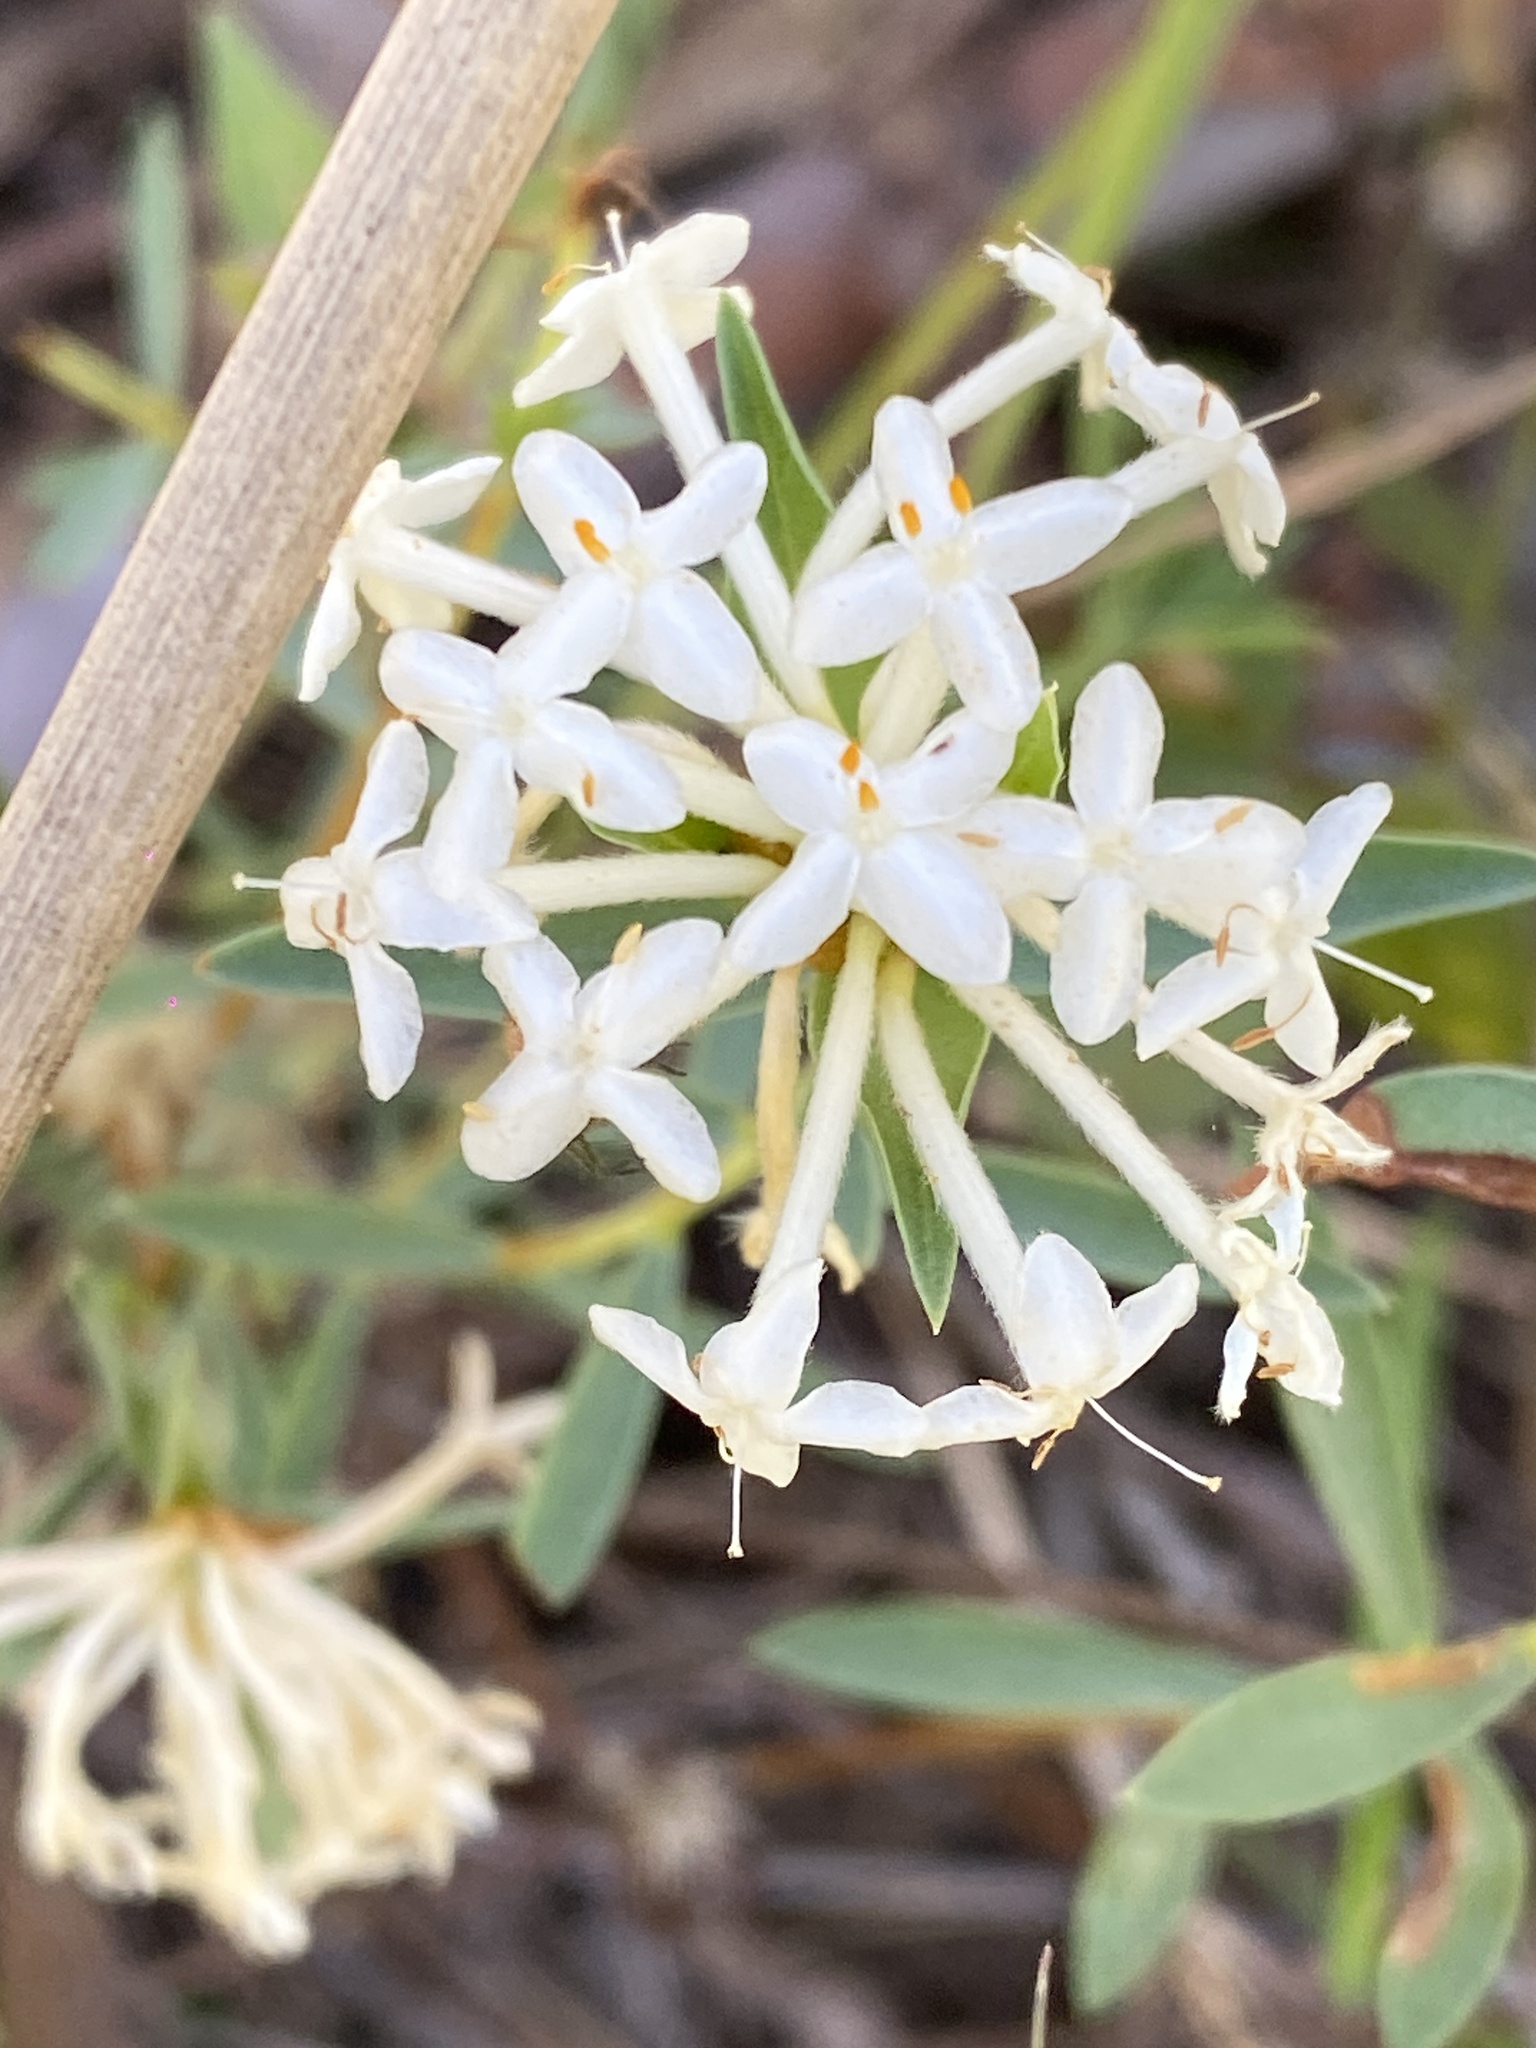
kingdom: Plantae
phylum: Tracheophyta
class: Magnoliopsida
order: Malvales
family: Thymelaeaceae
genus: Pimelea
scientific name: Pimelea linifolia
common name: Queen-of-the-bush
